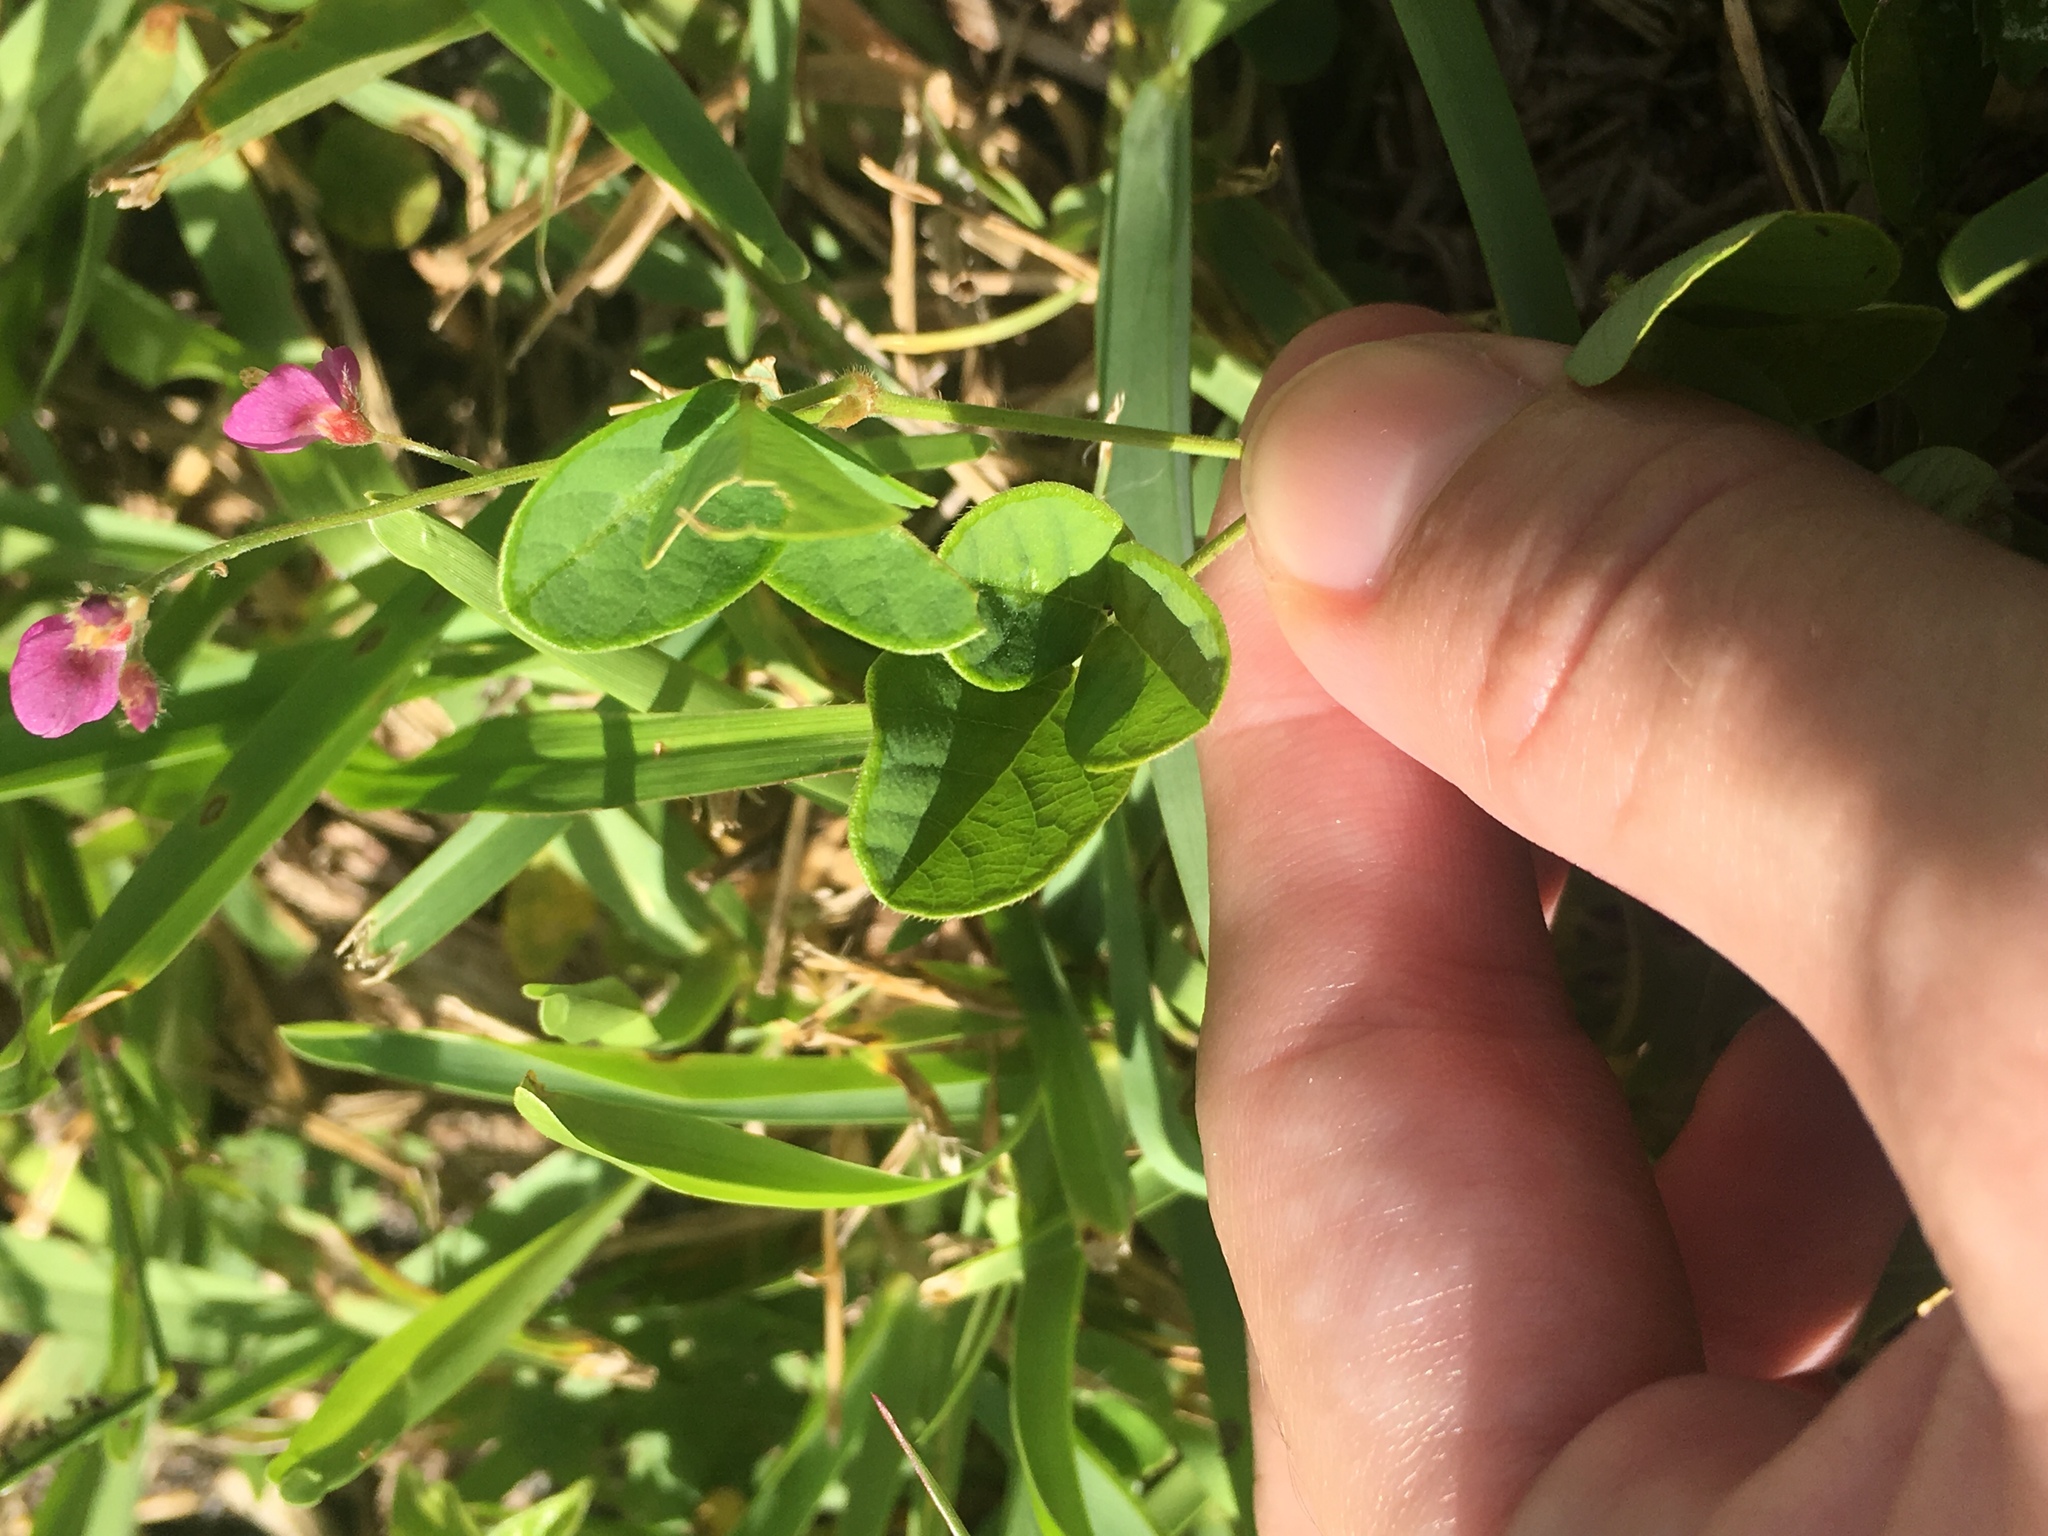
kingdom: Plantae
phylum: Tracheophyta
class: Magnoliopsida
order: Fabales
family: Fabaceae
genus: Desmodium
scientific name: Desmodium incanum
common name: Tickclover
